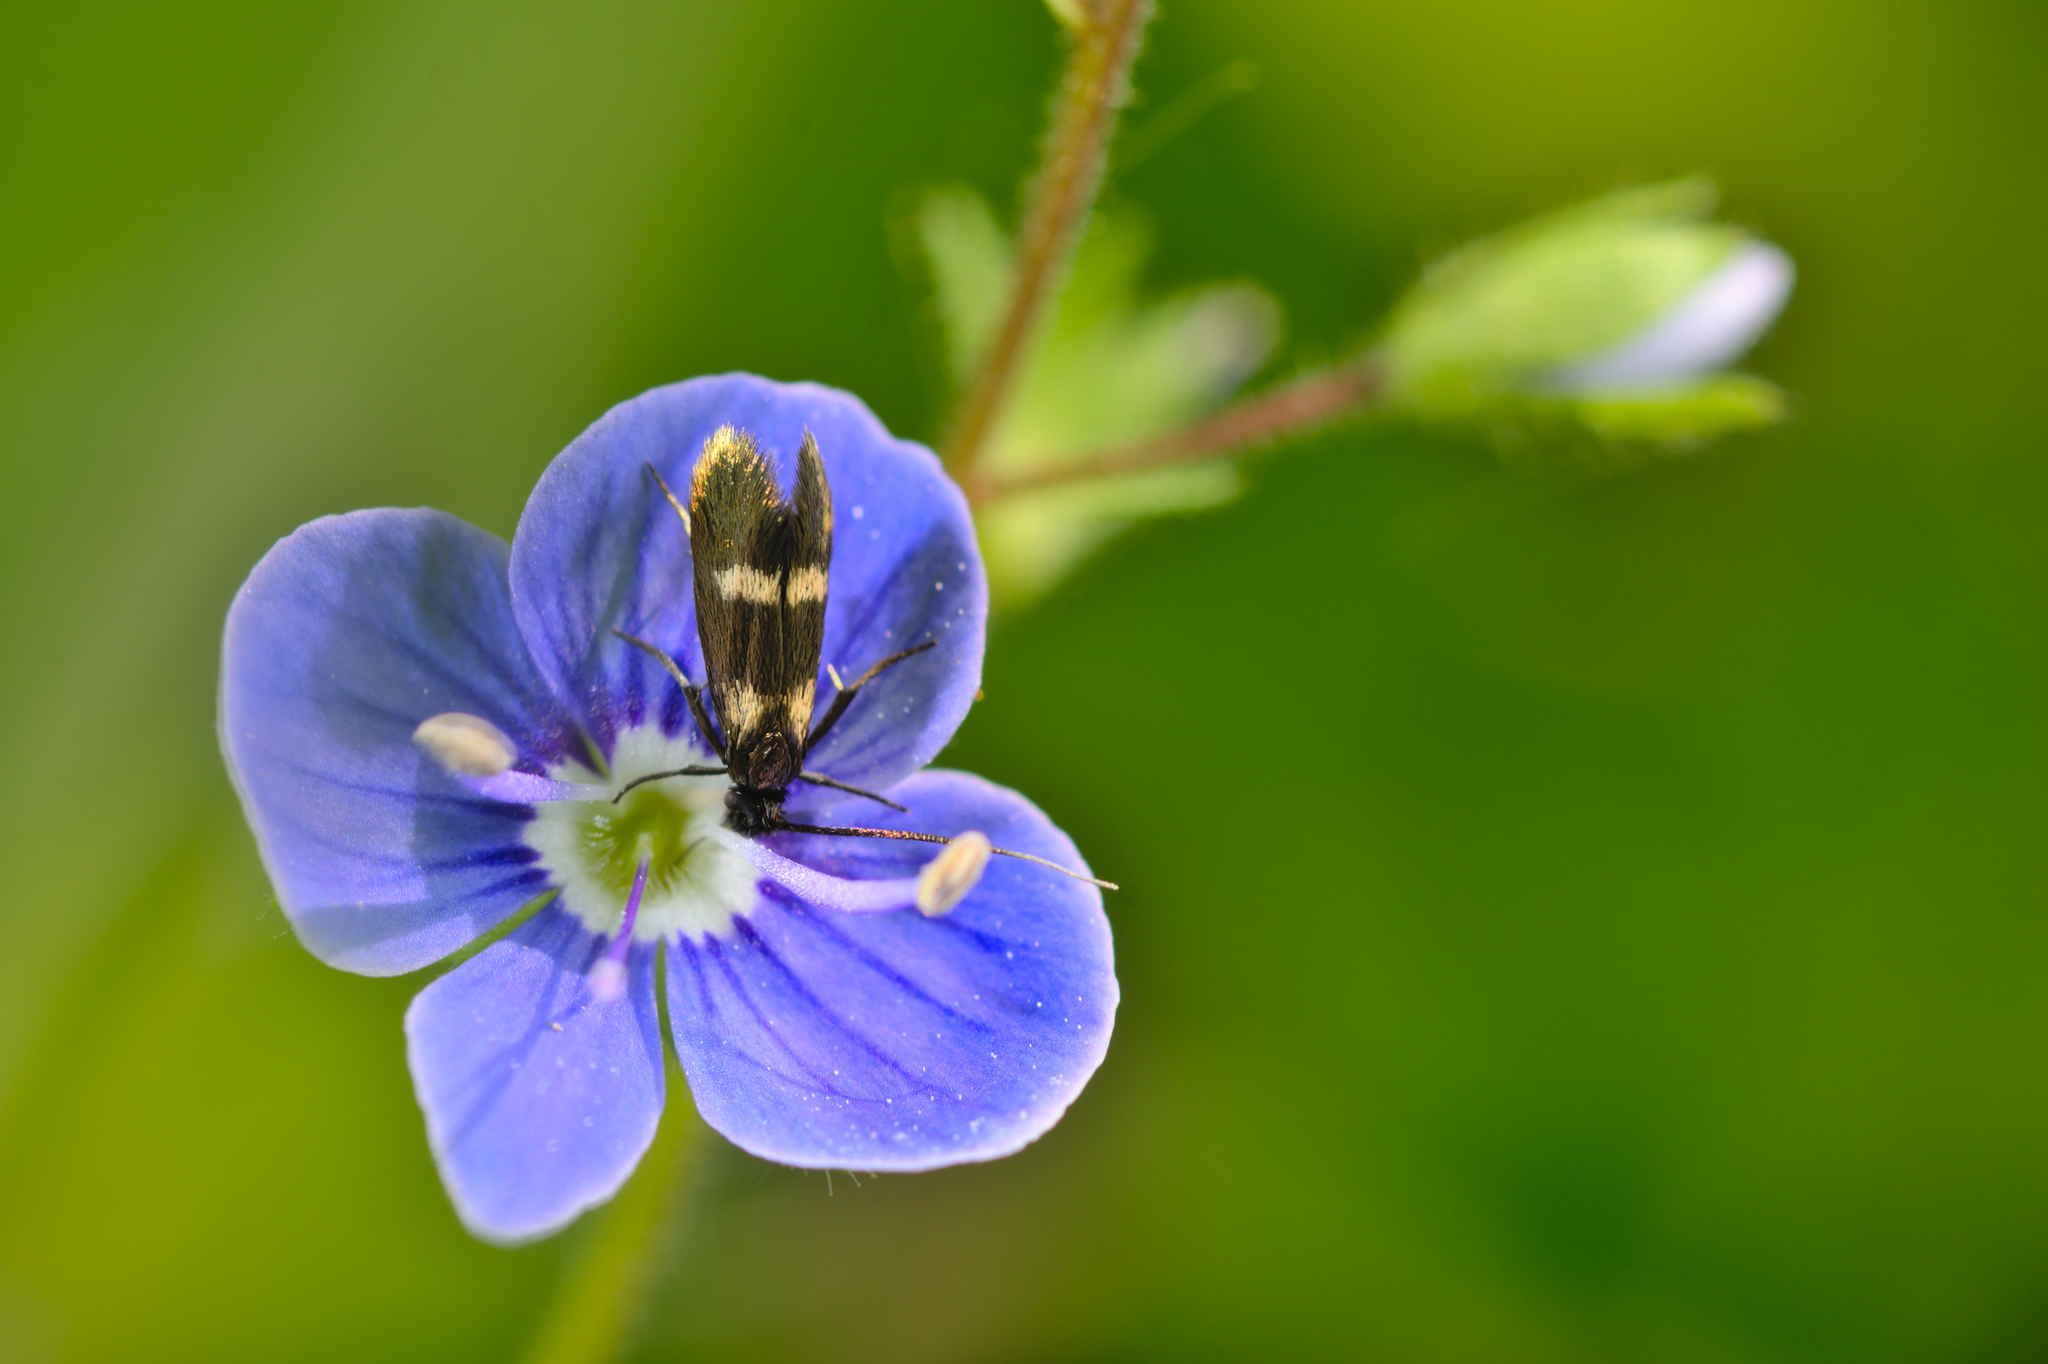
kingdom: Animalia
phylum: Arthropoda
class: Insecta
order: Lepidoptera
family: Adelidae
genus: Cauchas
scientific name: Cauchas fibulella
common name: Little long-horn
